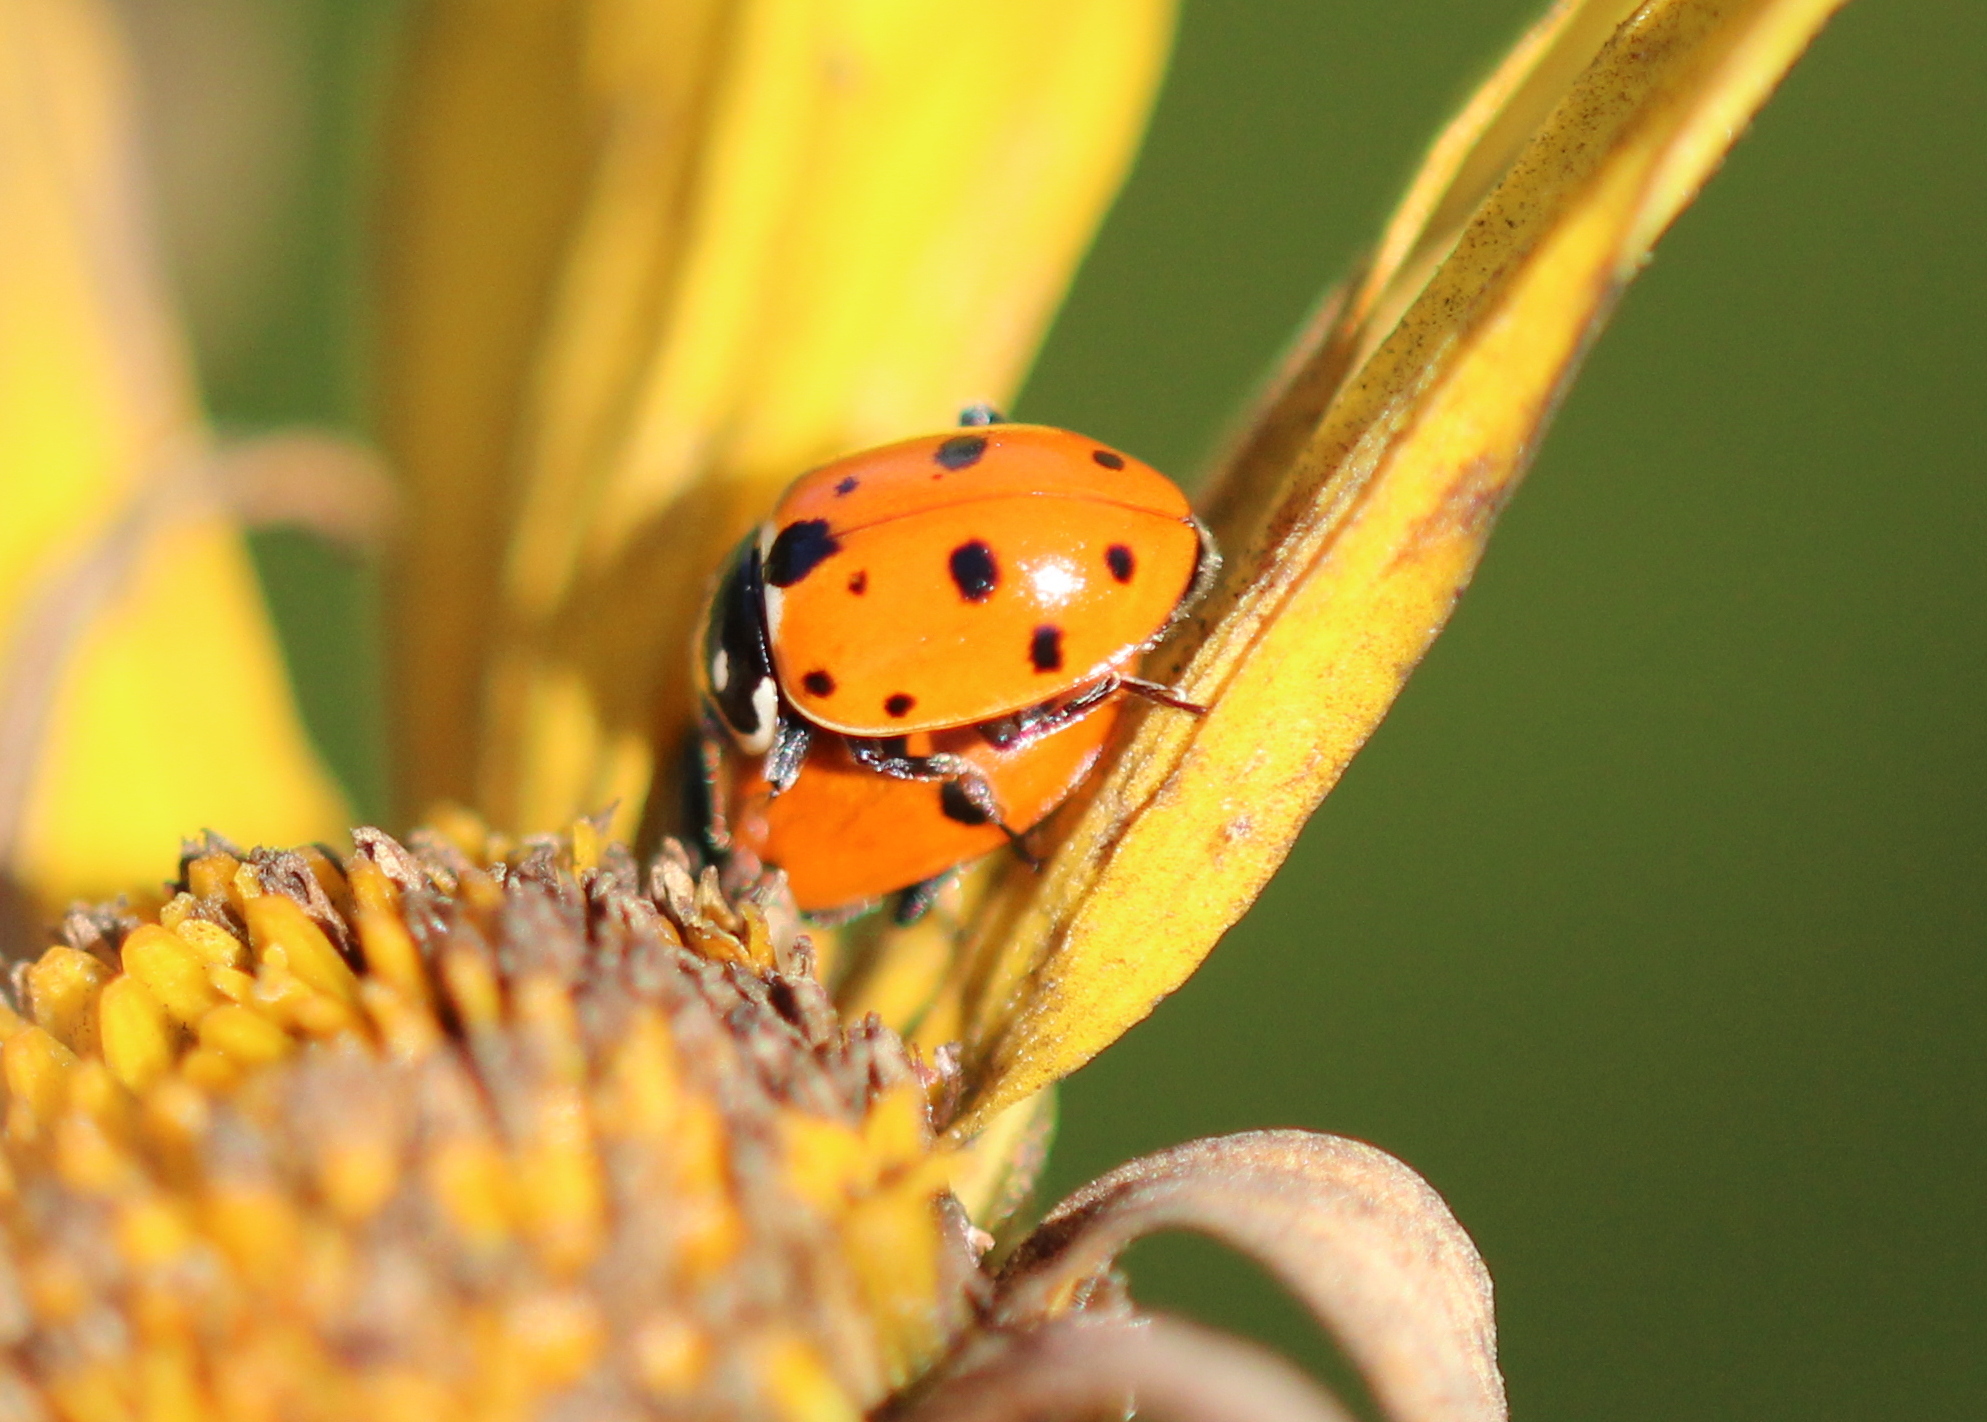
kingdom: Animalia
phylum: Arthropoda
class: Insecta
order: Coleoptera
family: Coccinellidae
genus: Hippodamia
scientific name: Hippodamia convergens
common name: Convergent lady beetle
